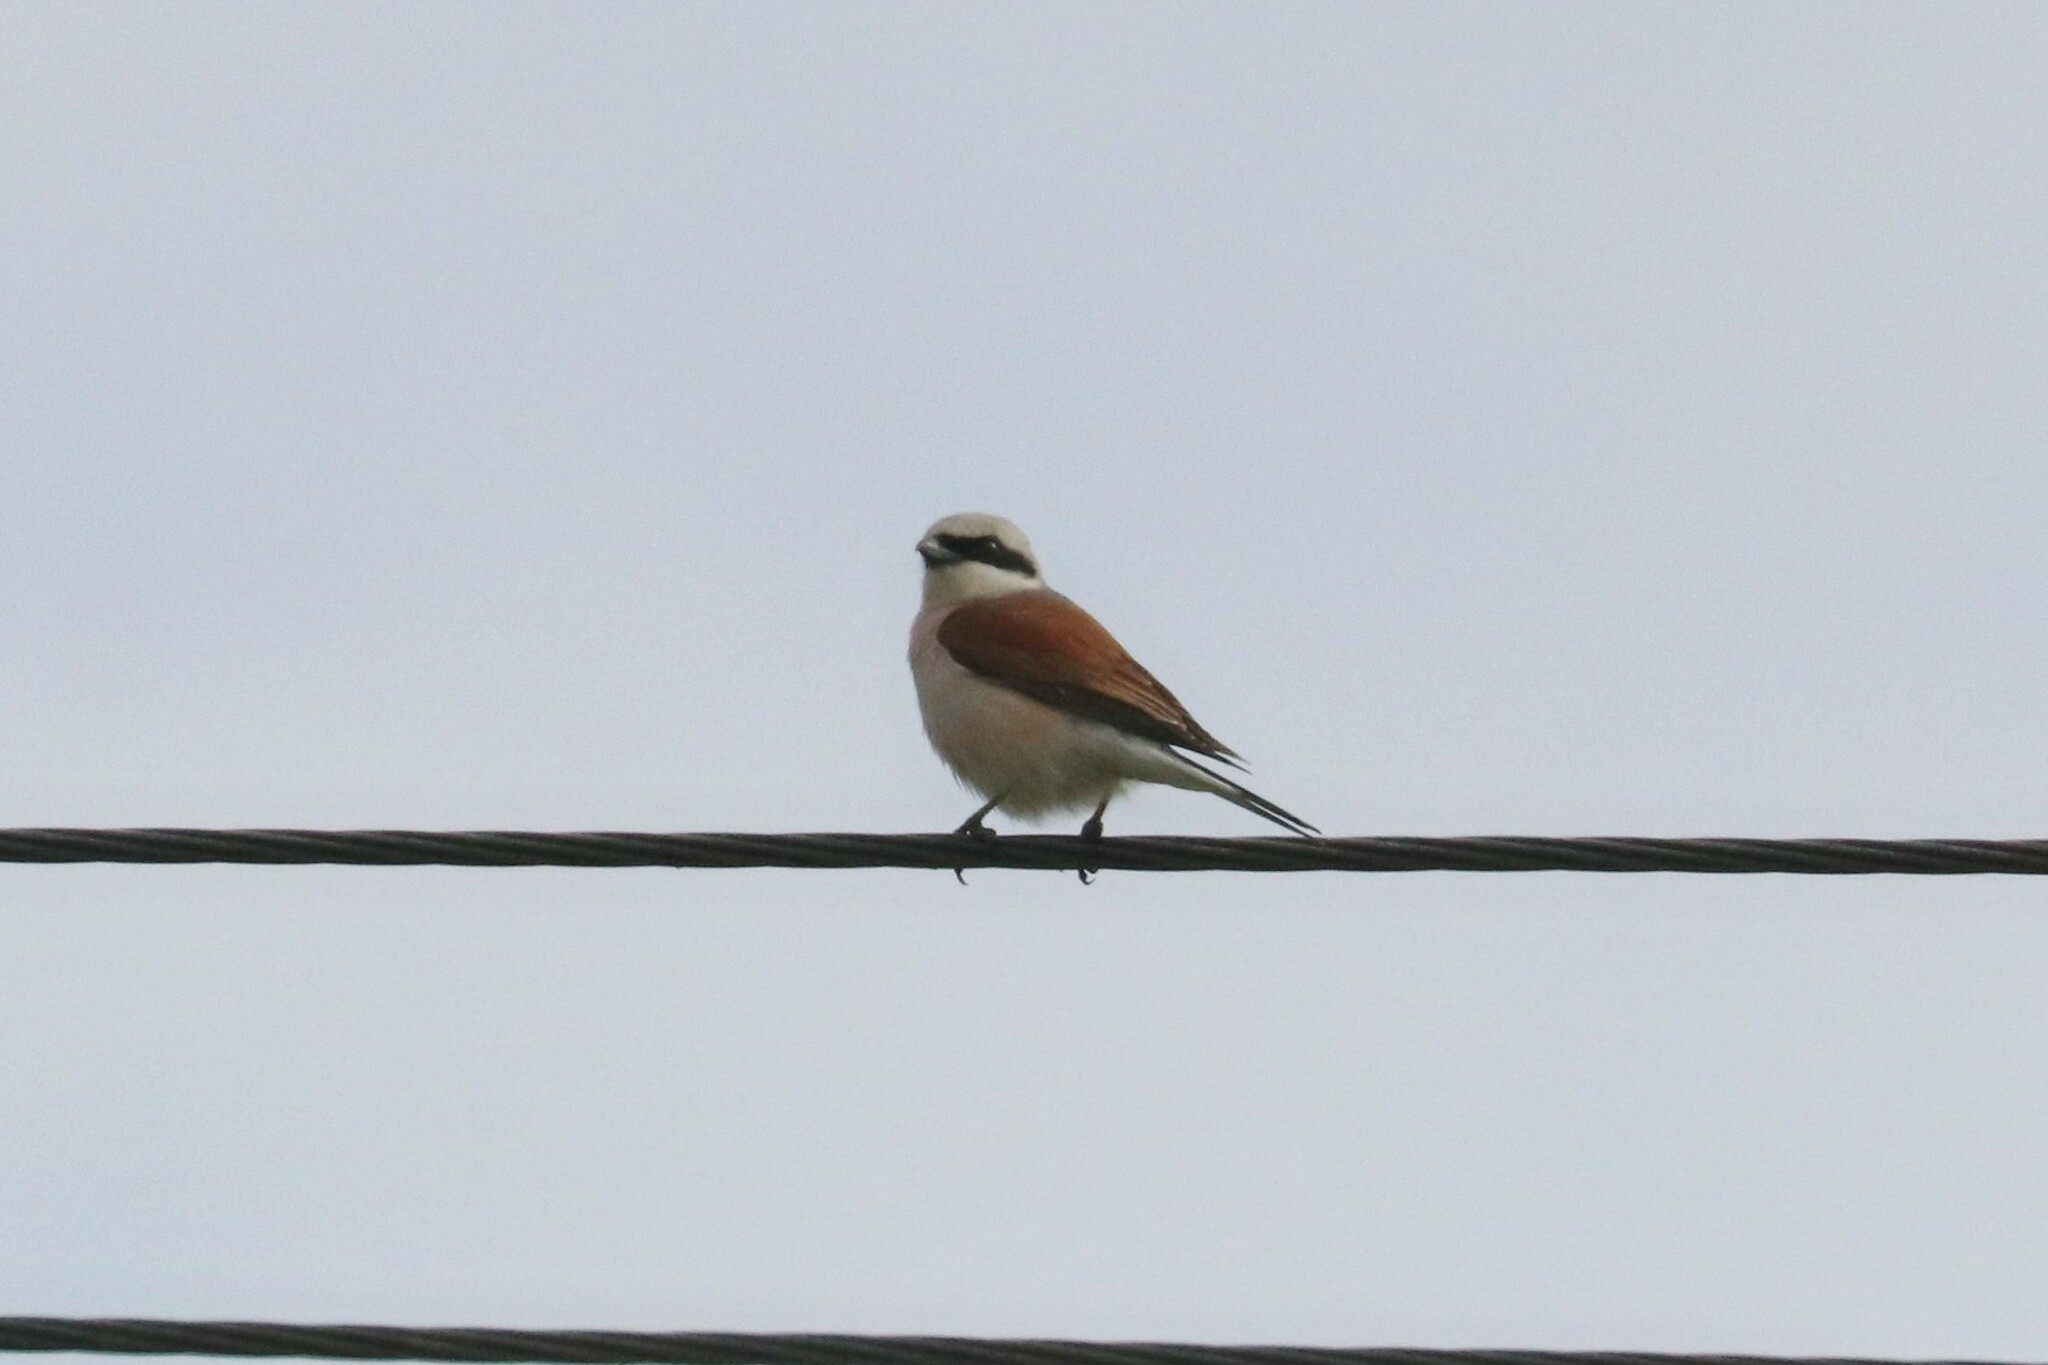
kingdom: Animalia
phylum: Chordata
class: Aves
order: Passeriformes
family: Laniidae
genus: Lanius
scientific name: Lanius collurio
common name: Red-backed shrike
